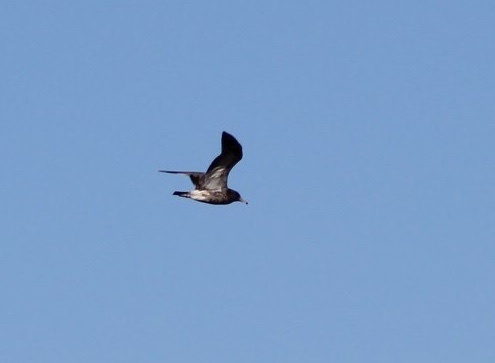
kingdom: Animalia
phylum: Chordata
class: Aves
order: Procellariiformes
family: Procellariidae
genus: Puffinus
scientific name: Puffinus creatopus
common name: Pink-footed shearwater
